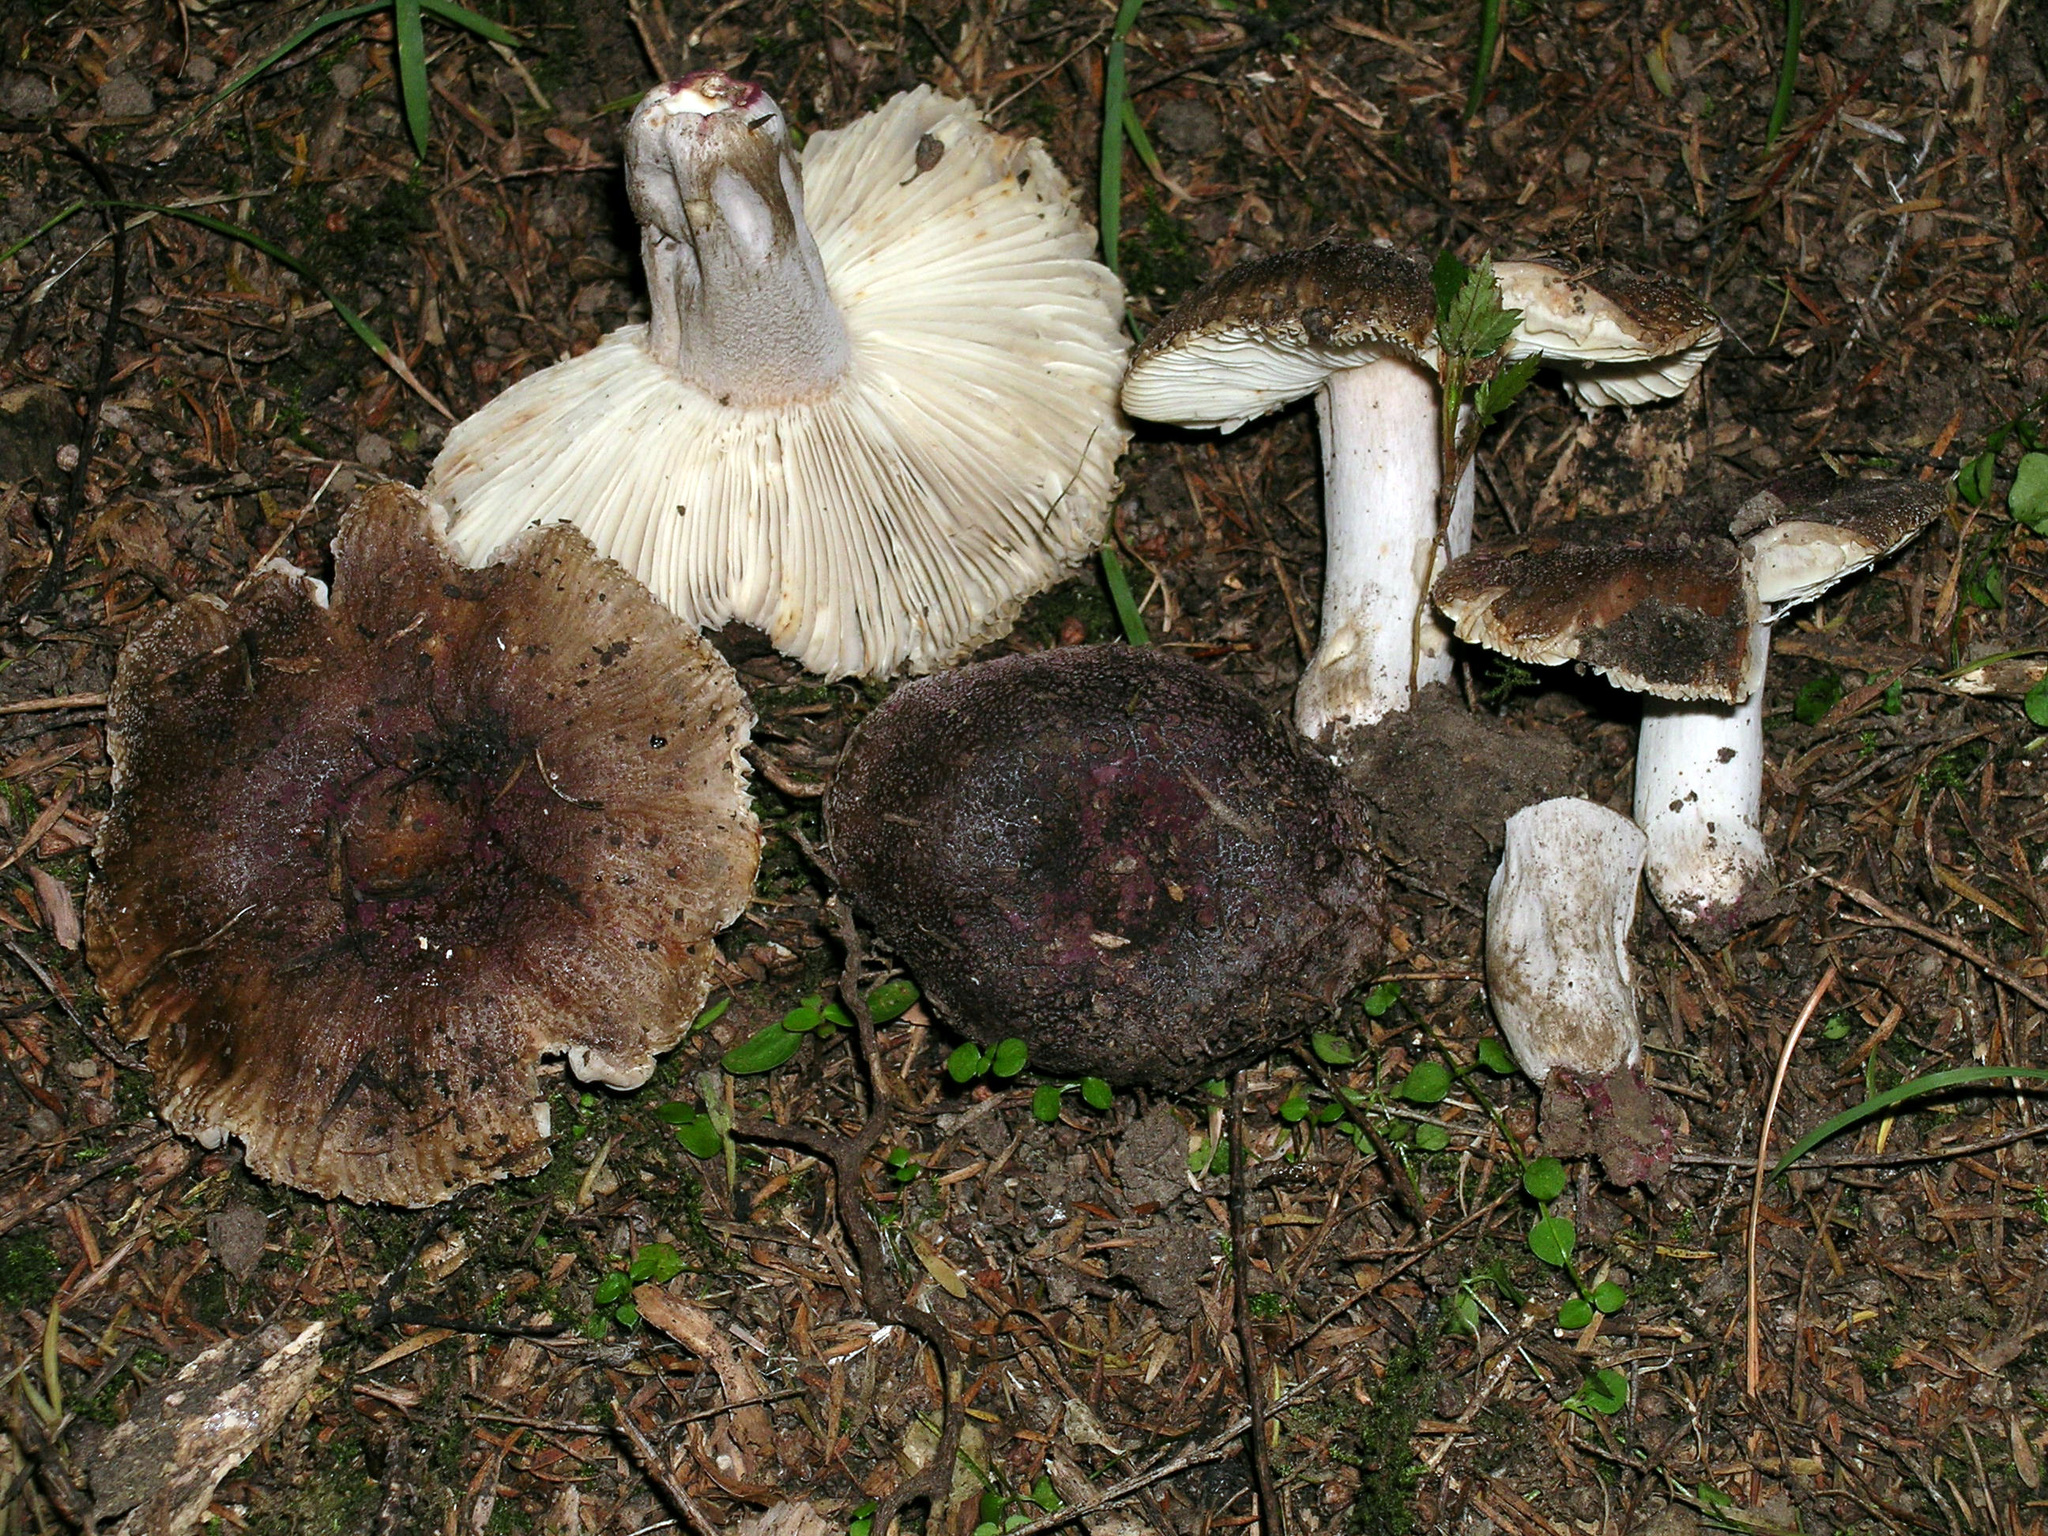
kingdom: Fungi
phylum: Basidiomycota
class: Agaricomycetes
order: Russulales
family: Russulaceae
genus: Russula
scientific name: Russula vinaceocuticulata
